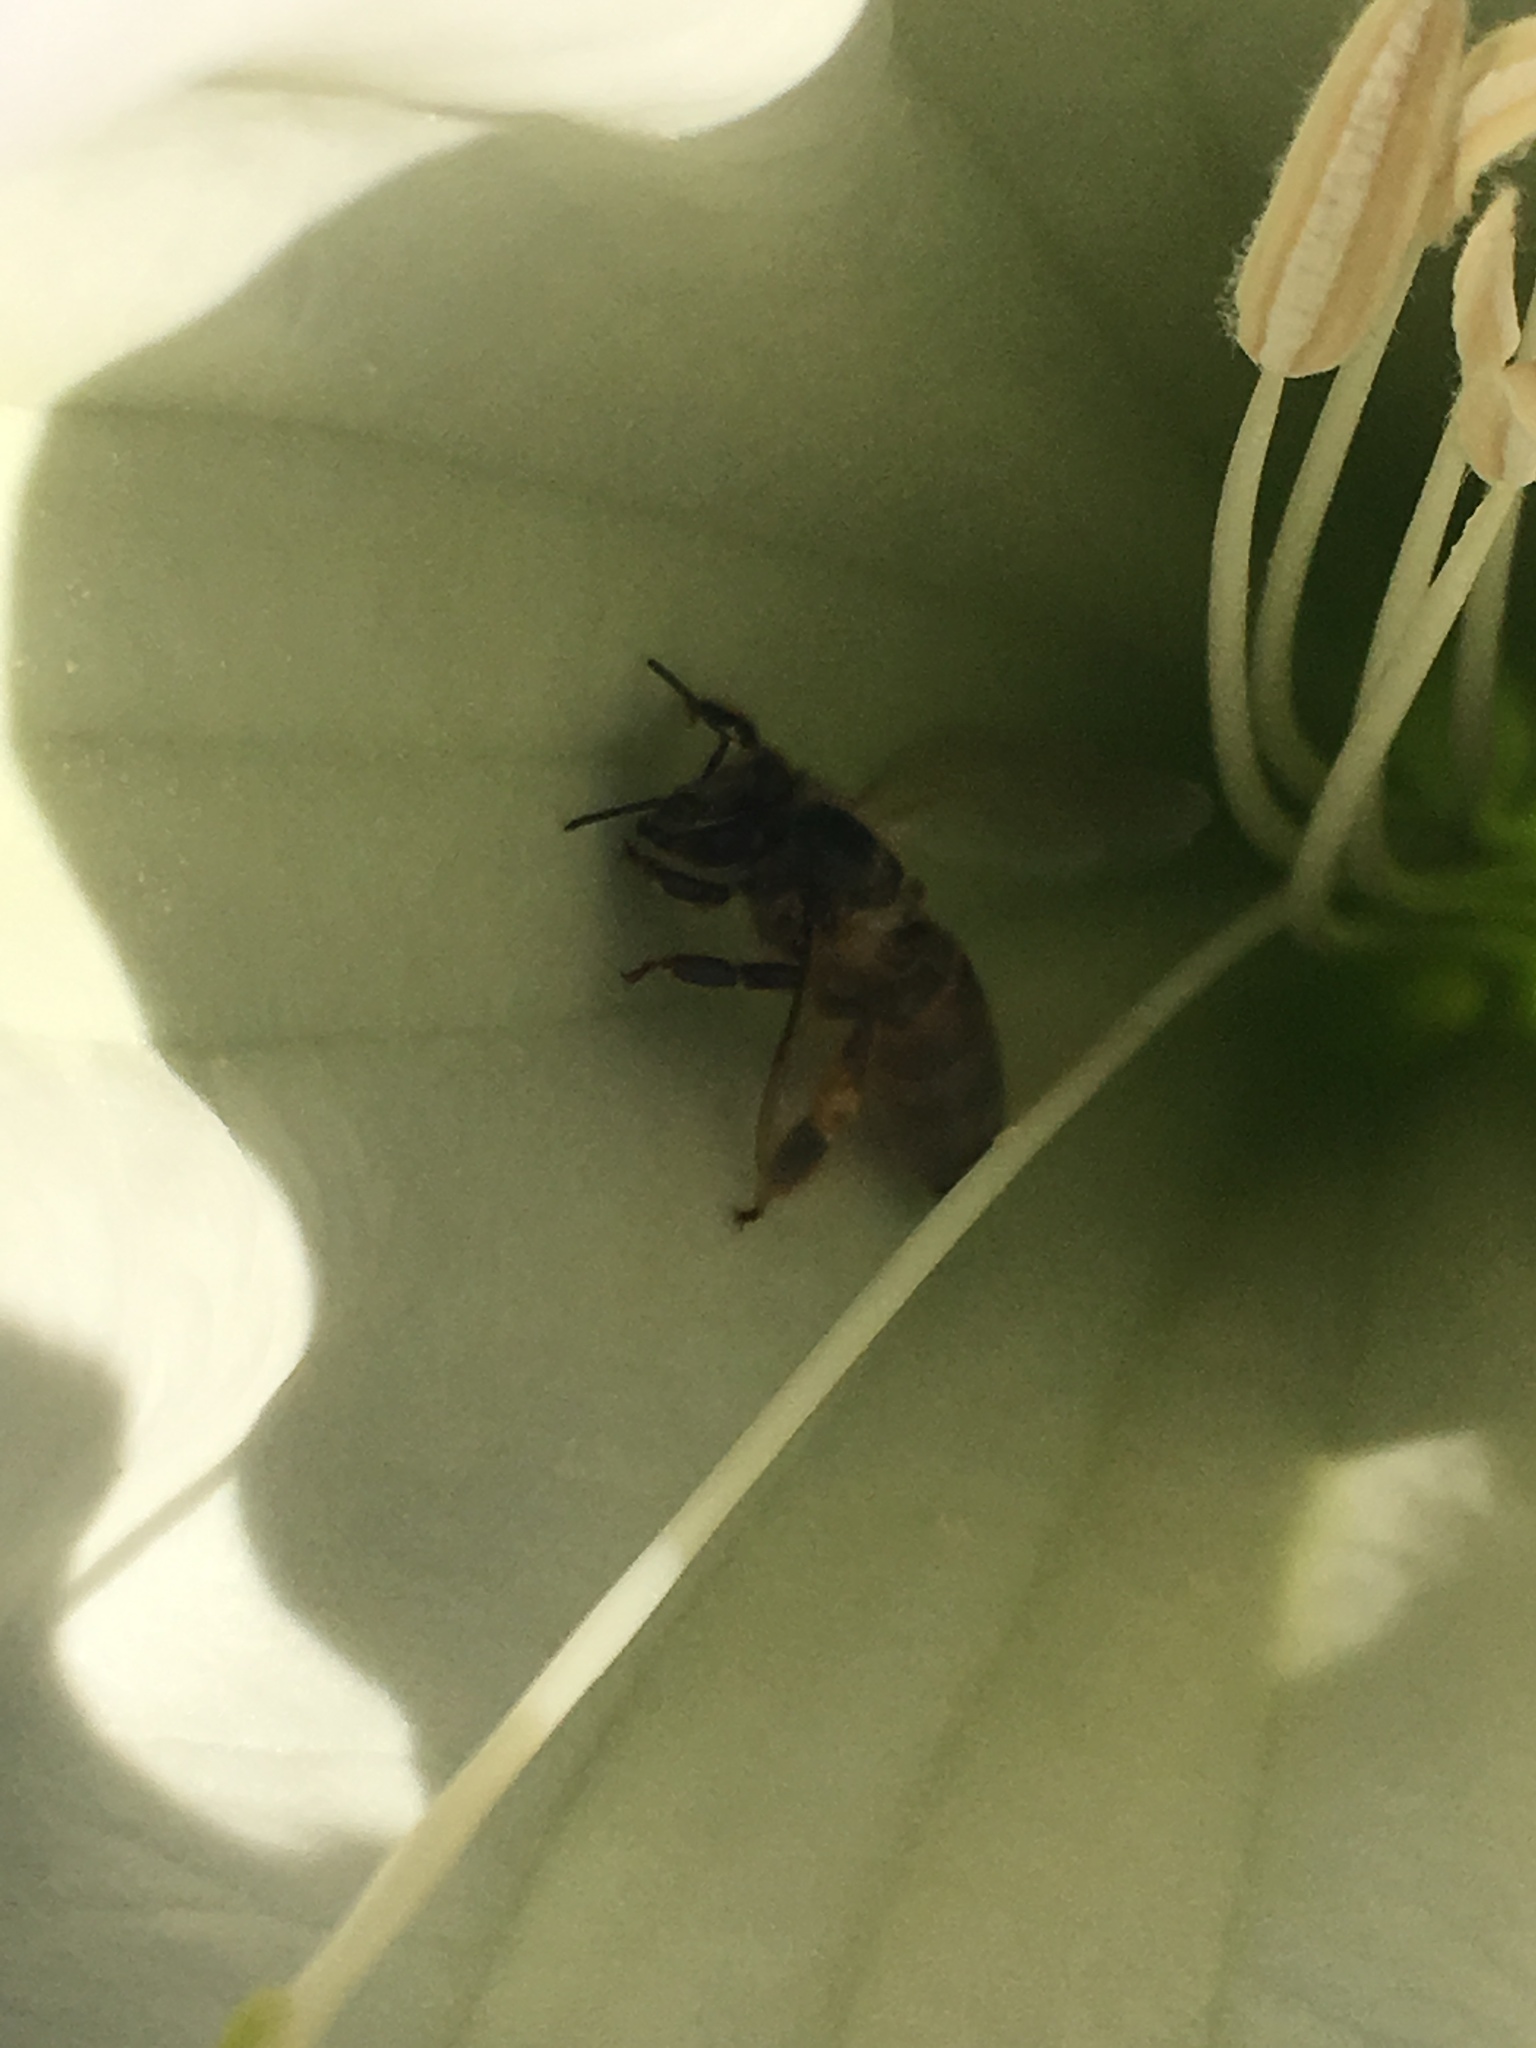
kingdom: Animalia
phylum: Arthropoda
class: Insecta
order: Hymenoptera
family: Apidae
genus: Apis
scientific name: Apis mellifera
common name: Honey bee
